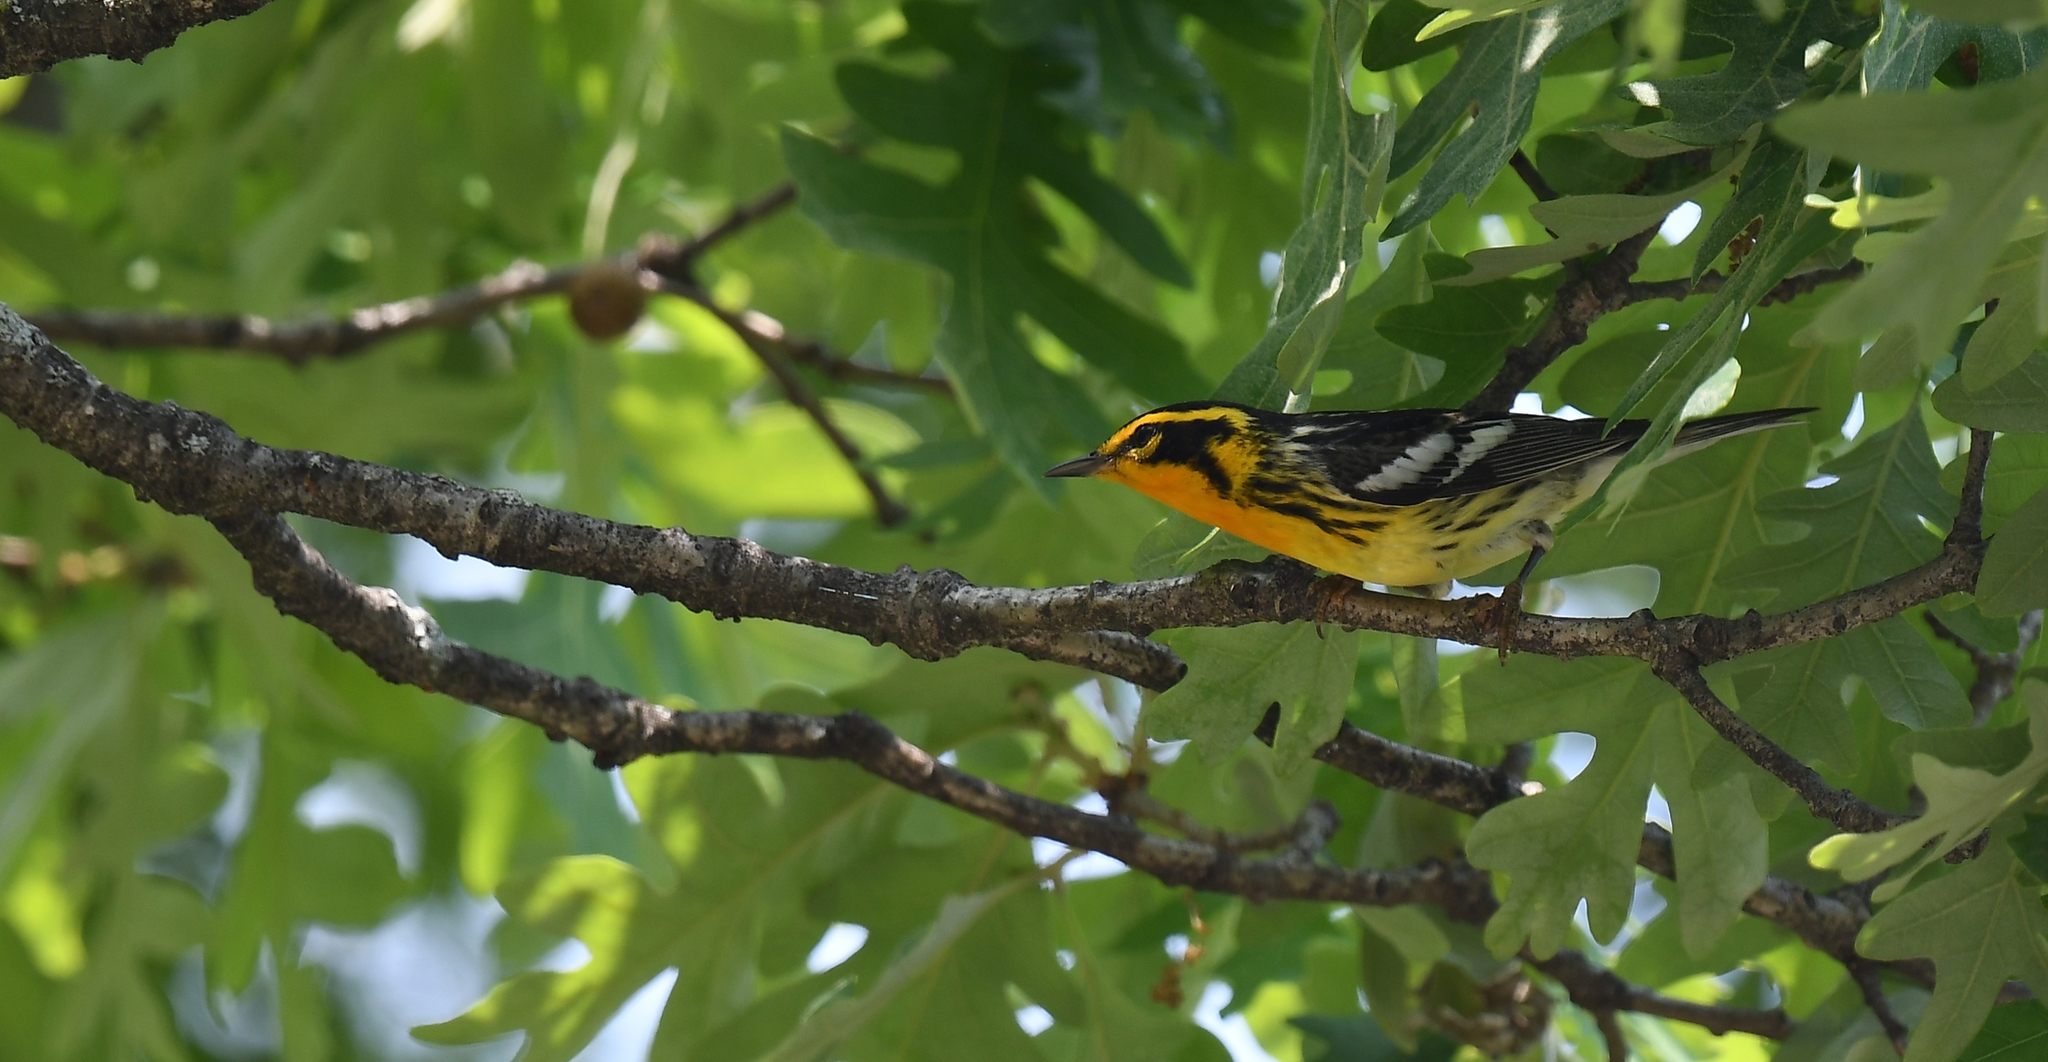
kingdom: Animalia
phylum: Chordata
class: Aves
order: Passeriformes
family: Parulidae
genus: Setophaga
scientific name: Setophaga fusca
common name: Blackburnian warbler
